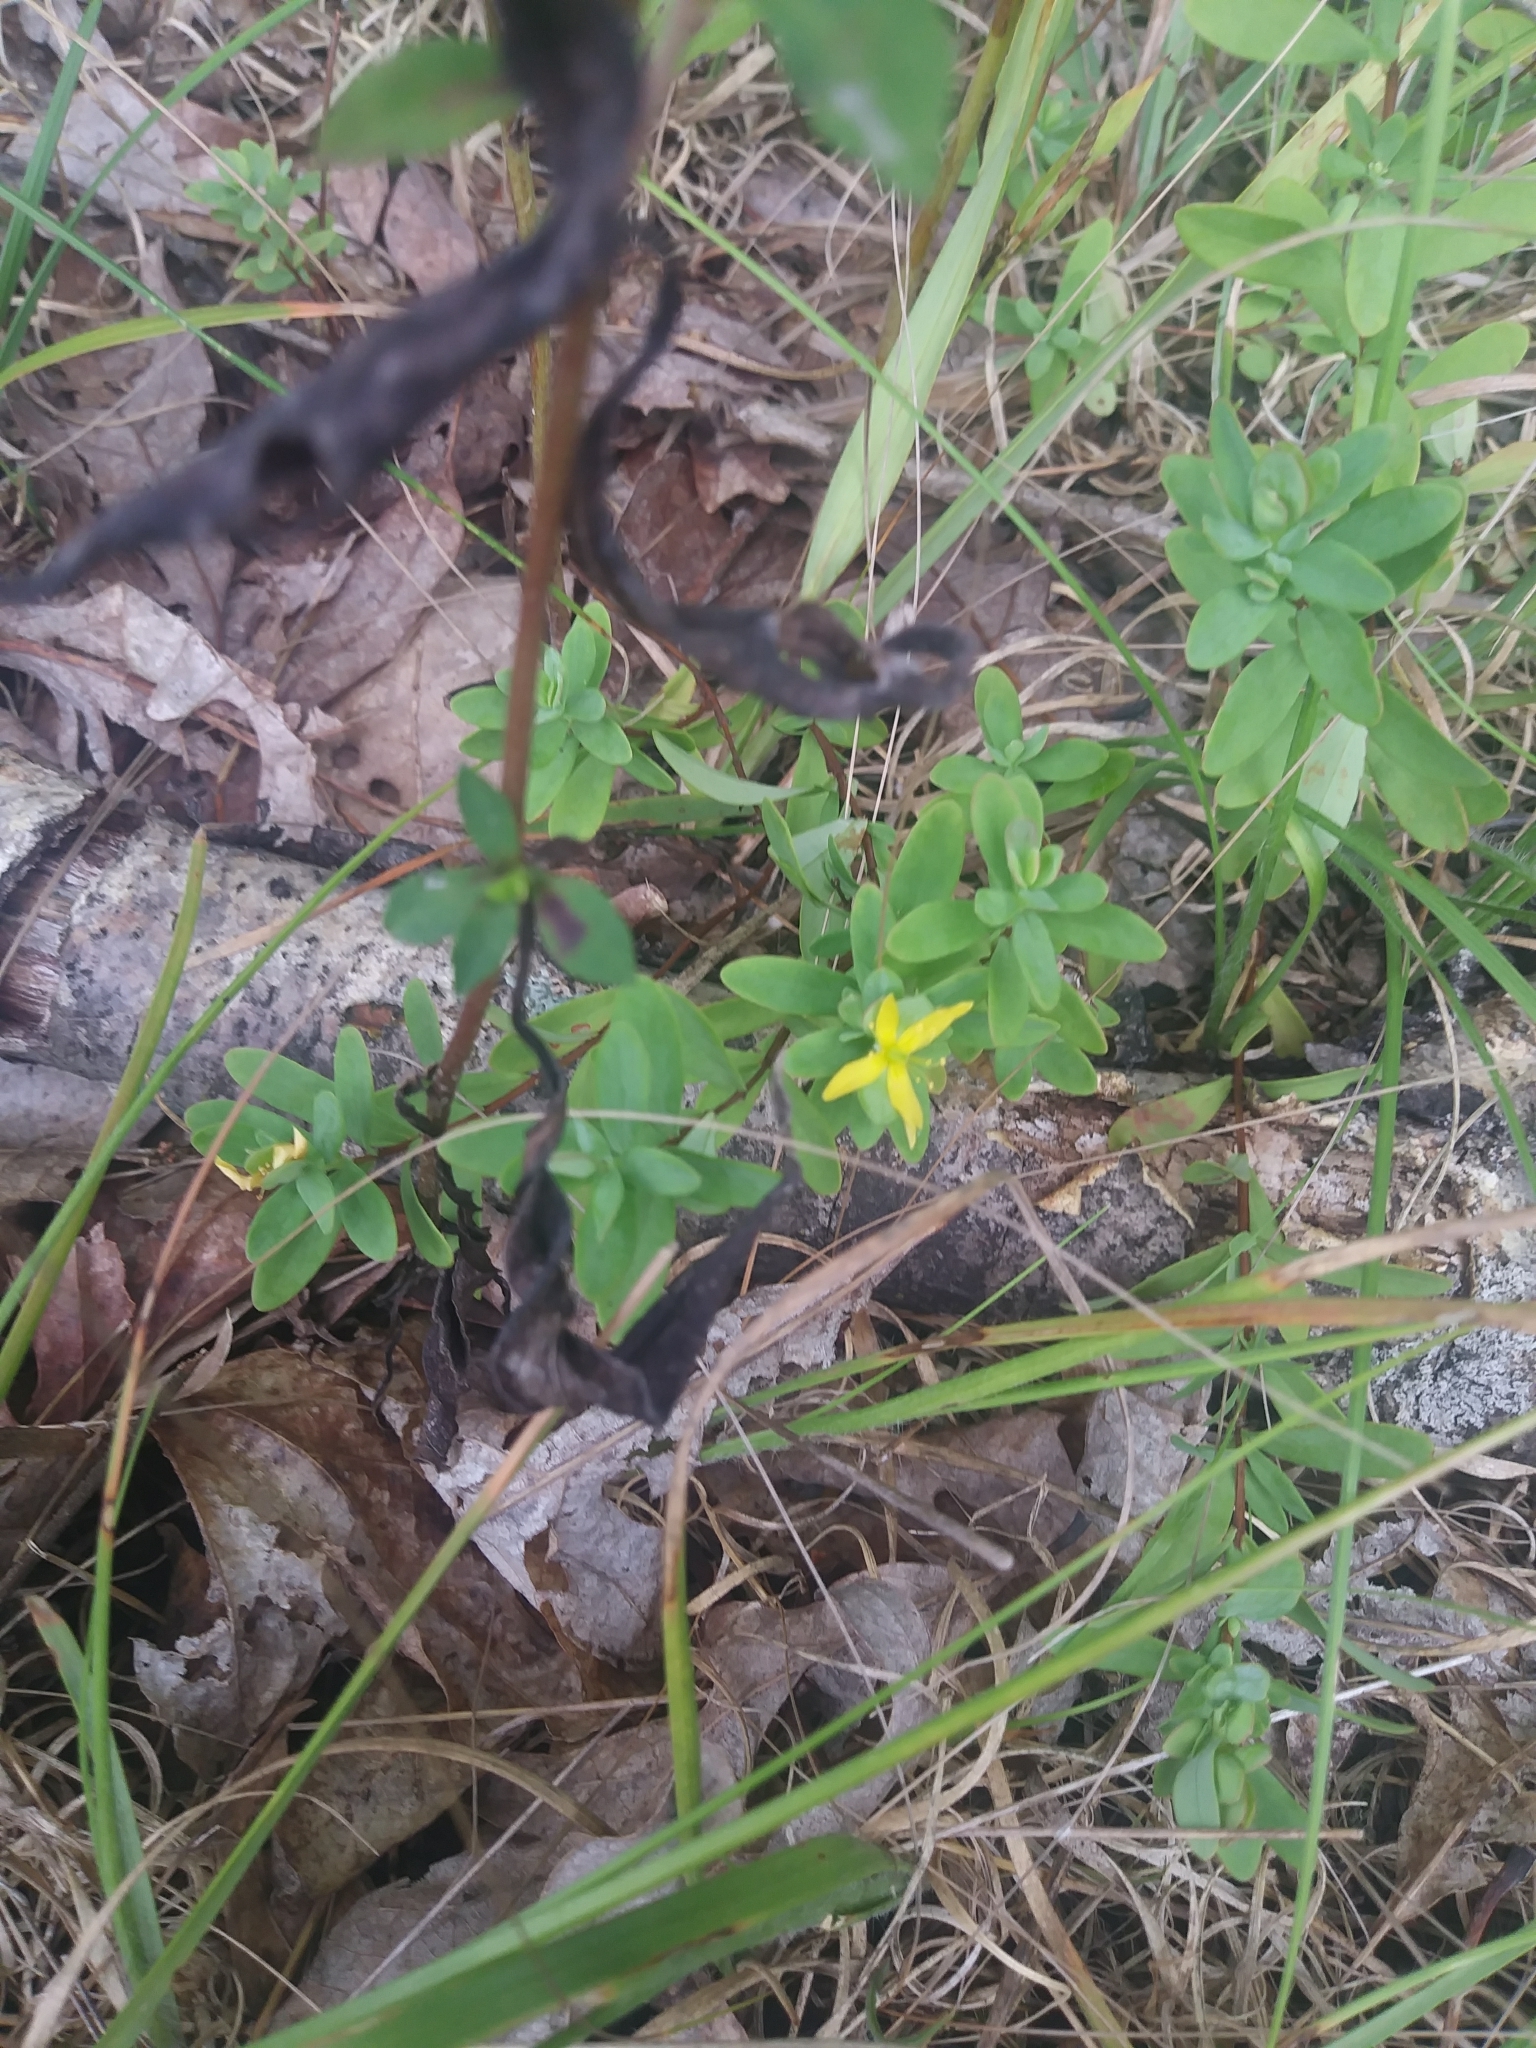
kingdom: Plantae
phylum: Tracheophyta
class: Magnoliopsida
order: Malpighiales
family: Hypericaceae
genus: Hypericum
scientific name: Hypericum hypericoides
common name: St. andrew's cross
